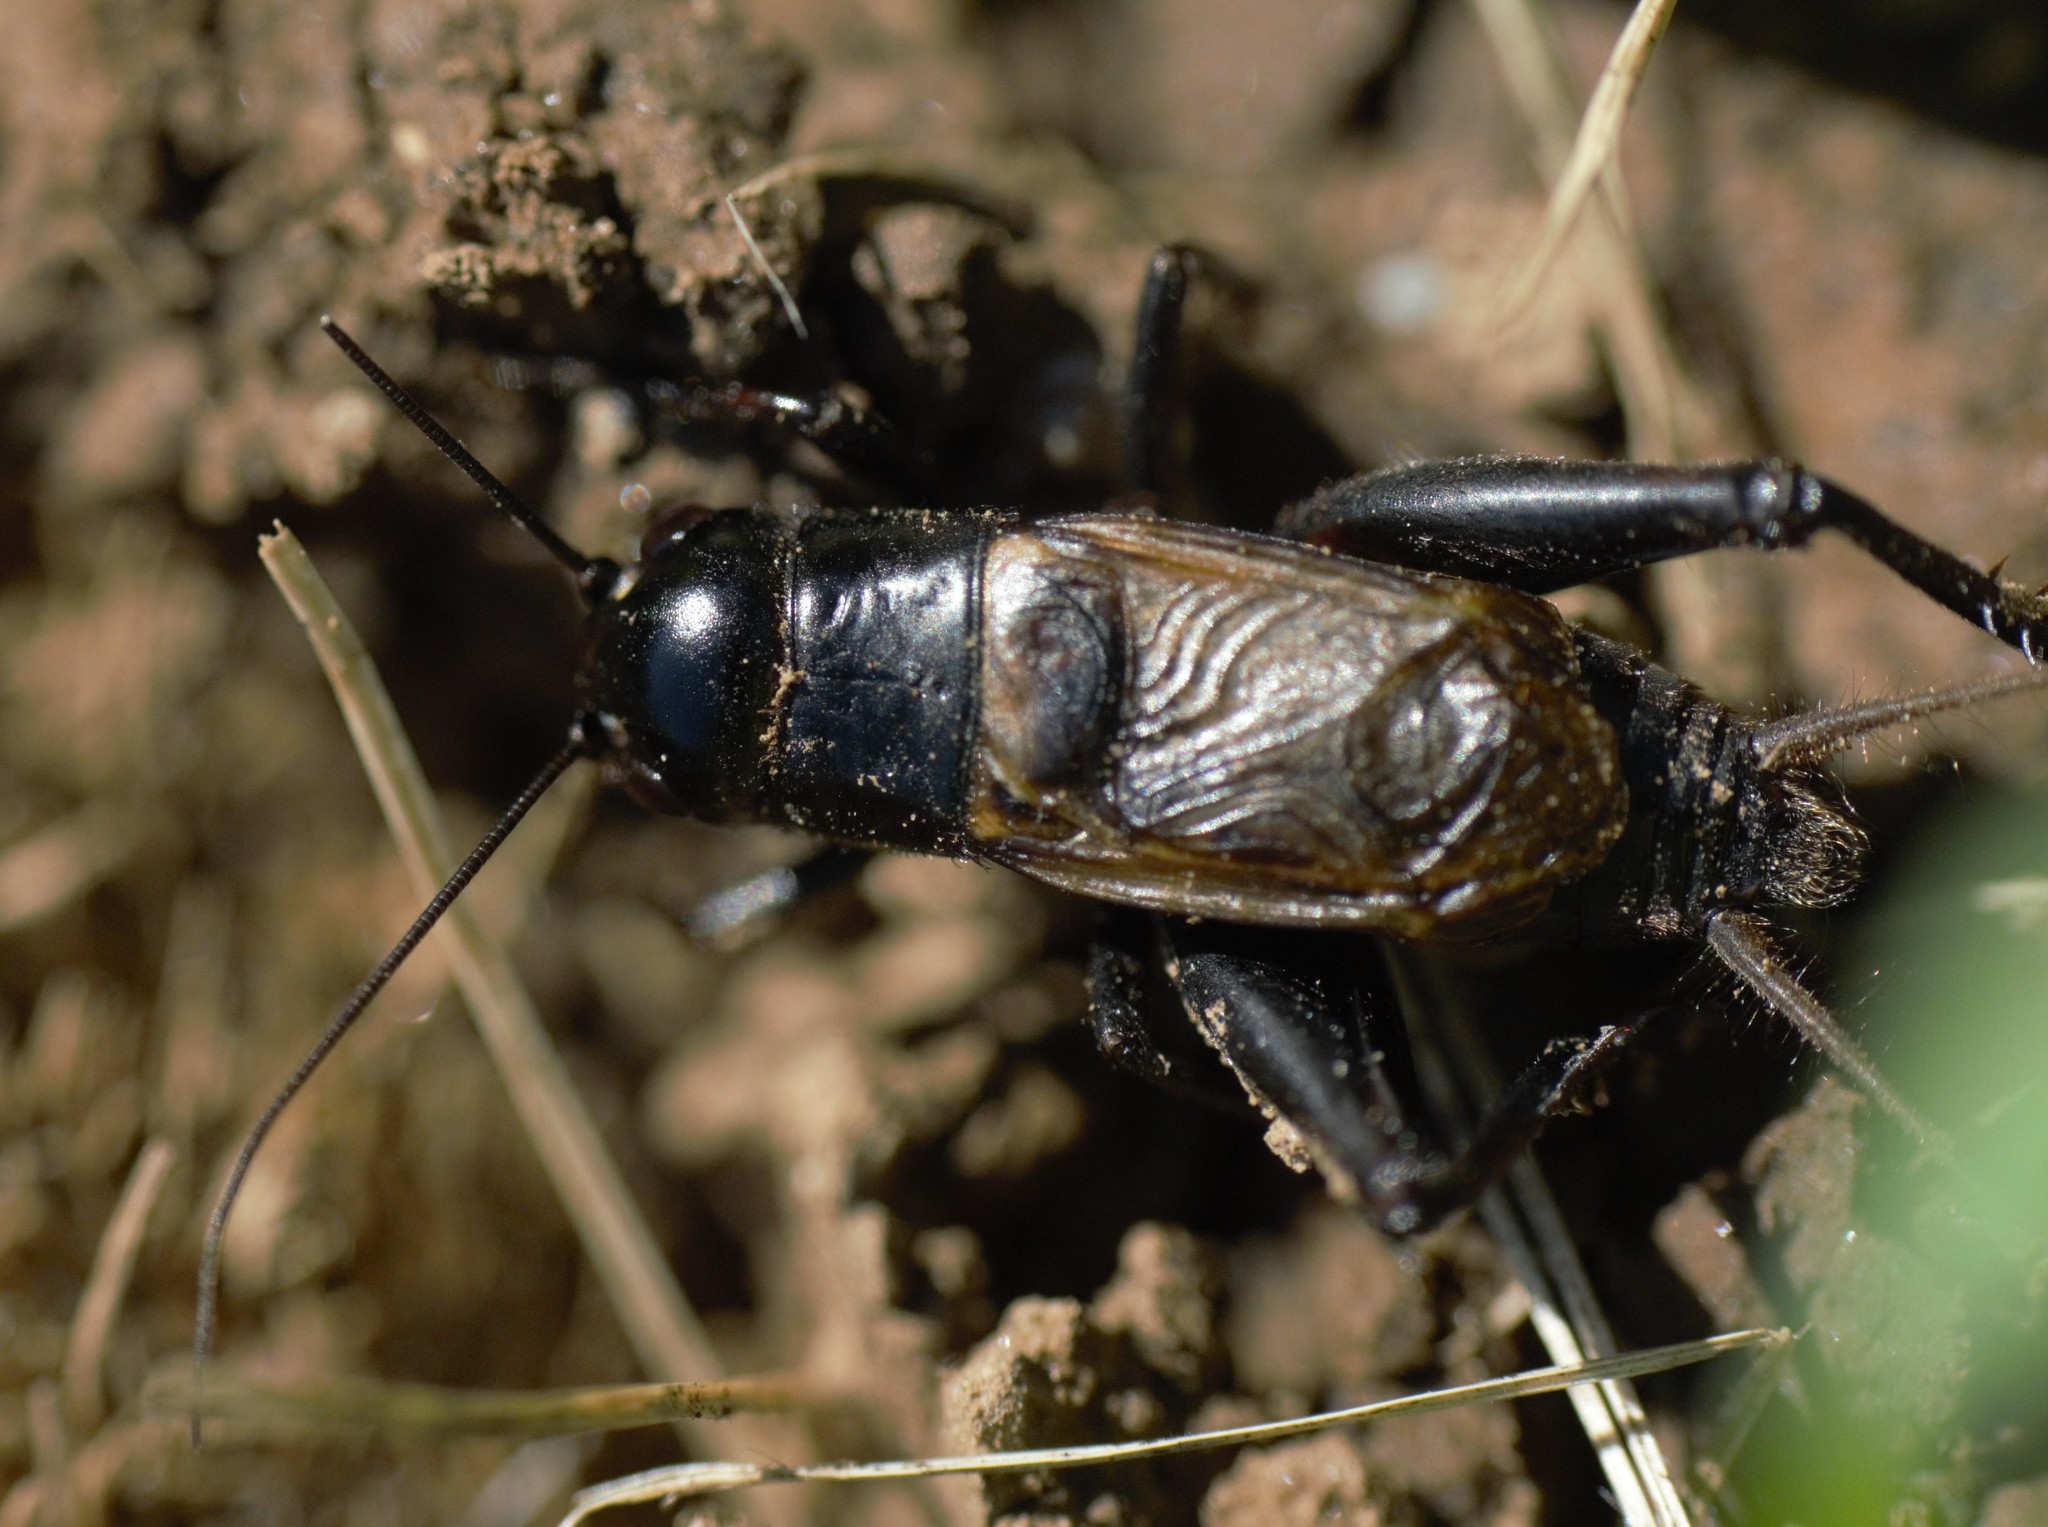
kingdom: Animalia
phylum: Arthropoda
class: Insecta
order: Orthoptera
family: Gryllidae
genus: Gryllus
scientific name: Gryllus pennsylvanicus
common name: Fall field cricket
